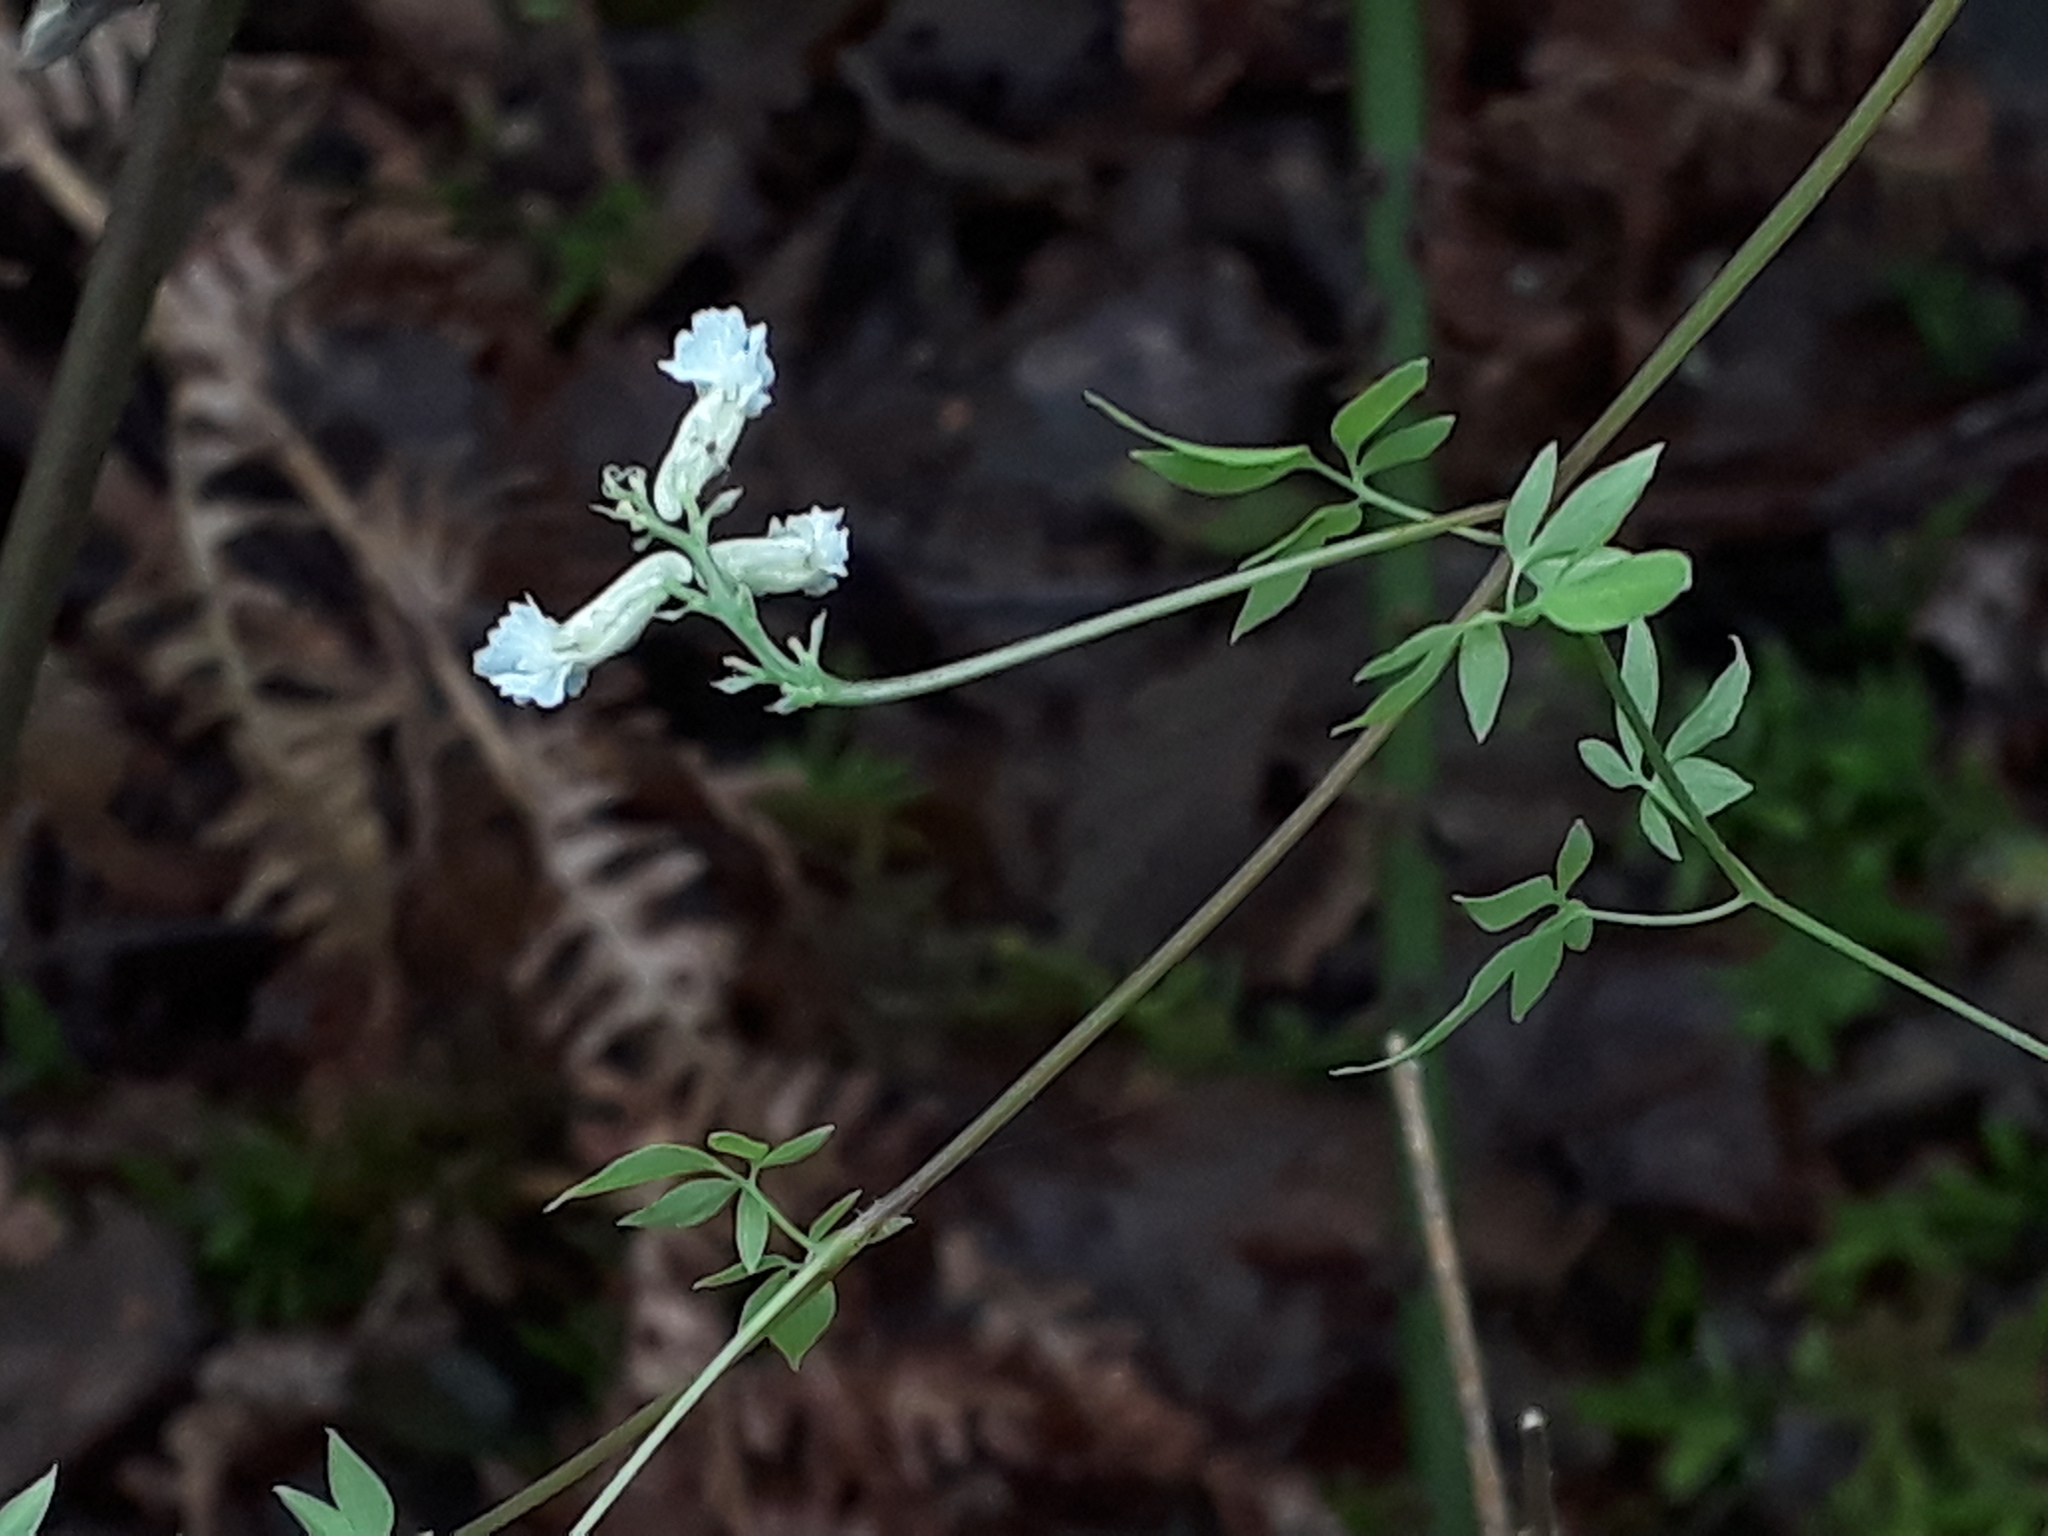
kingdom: Plantae
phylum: Tracheophyta
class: Magnoliopsida
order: Ranunculales
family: Papaveraceae
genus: Ceratocapnos
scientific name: Ceratocapnos claviculata
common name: Climbing corydalis
